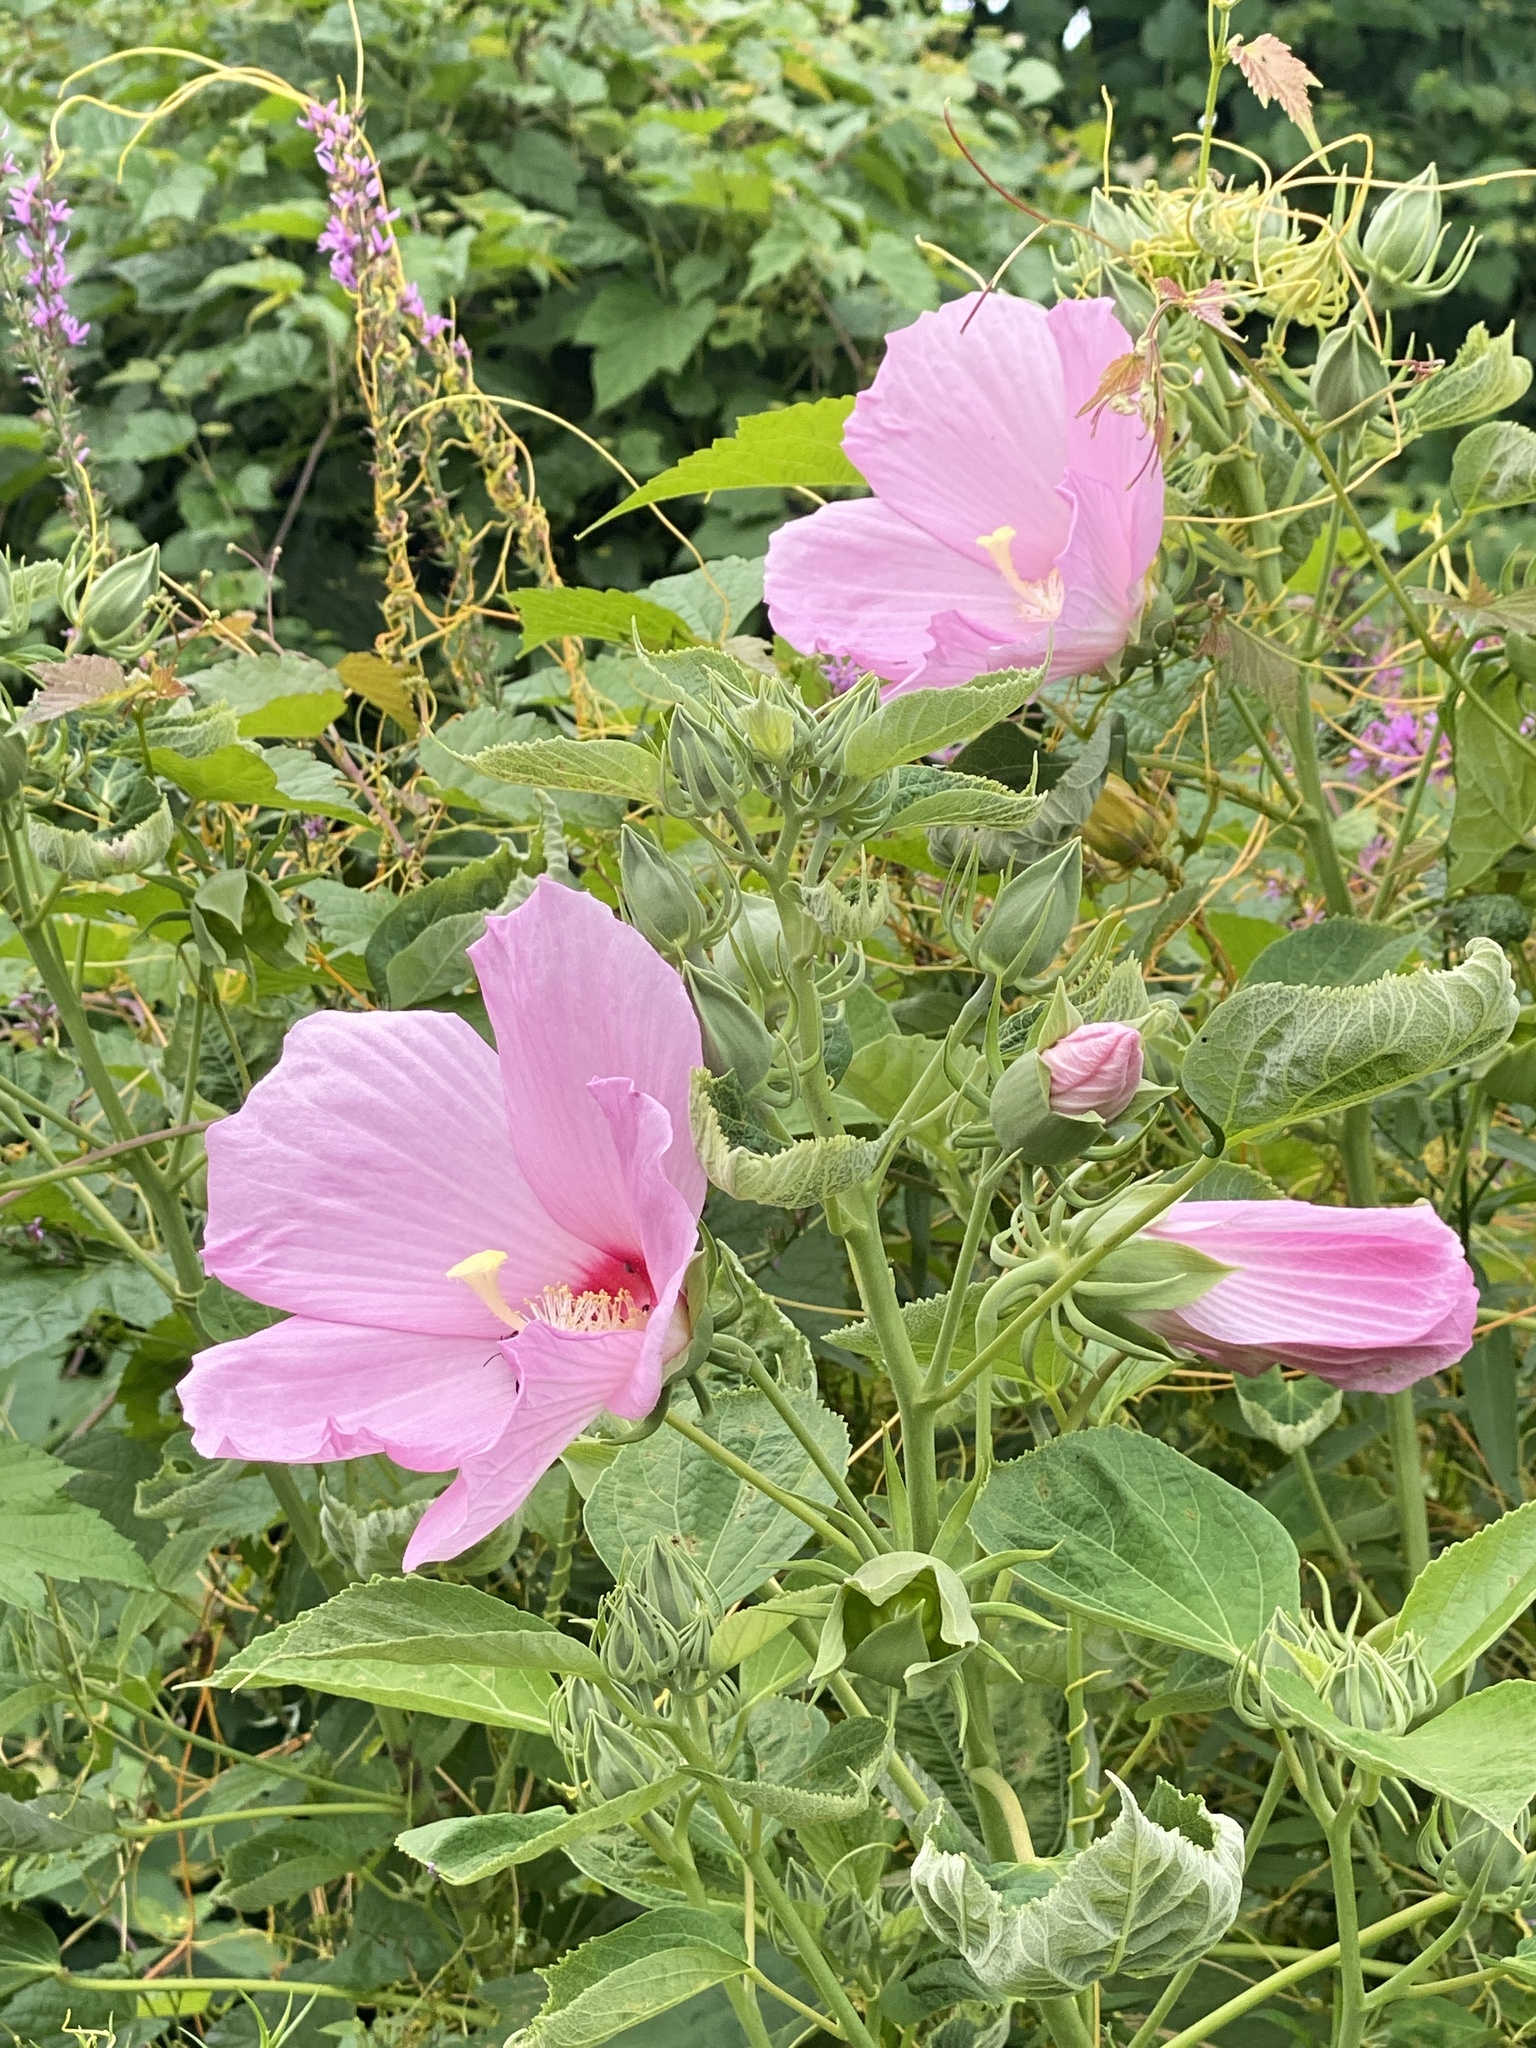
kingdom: Plantae
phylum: Tracheophyta
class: Magnoliopsida
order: Malvales
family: Malvaceae
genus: Hibiscus
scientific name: Hibiscus moscheutos
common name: Common rose-mallow
